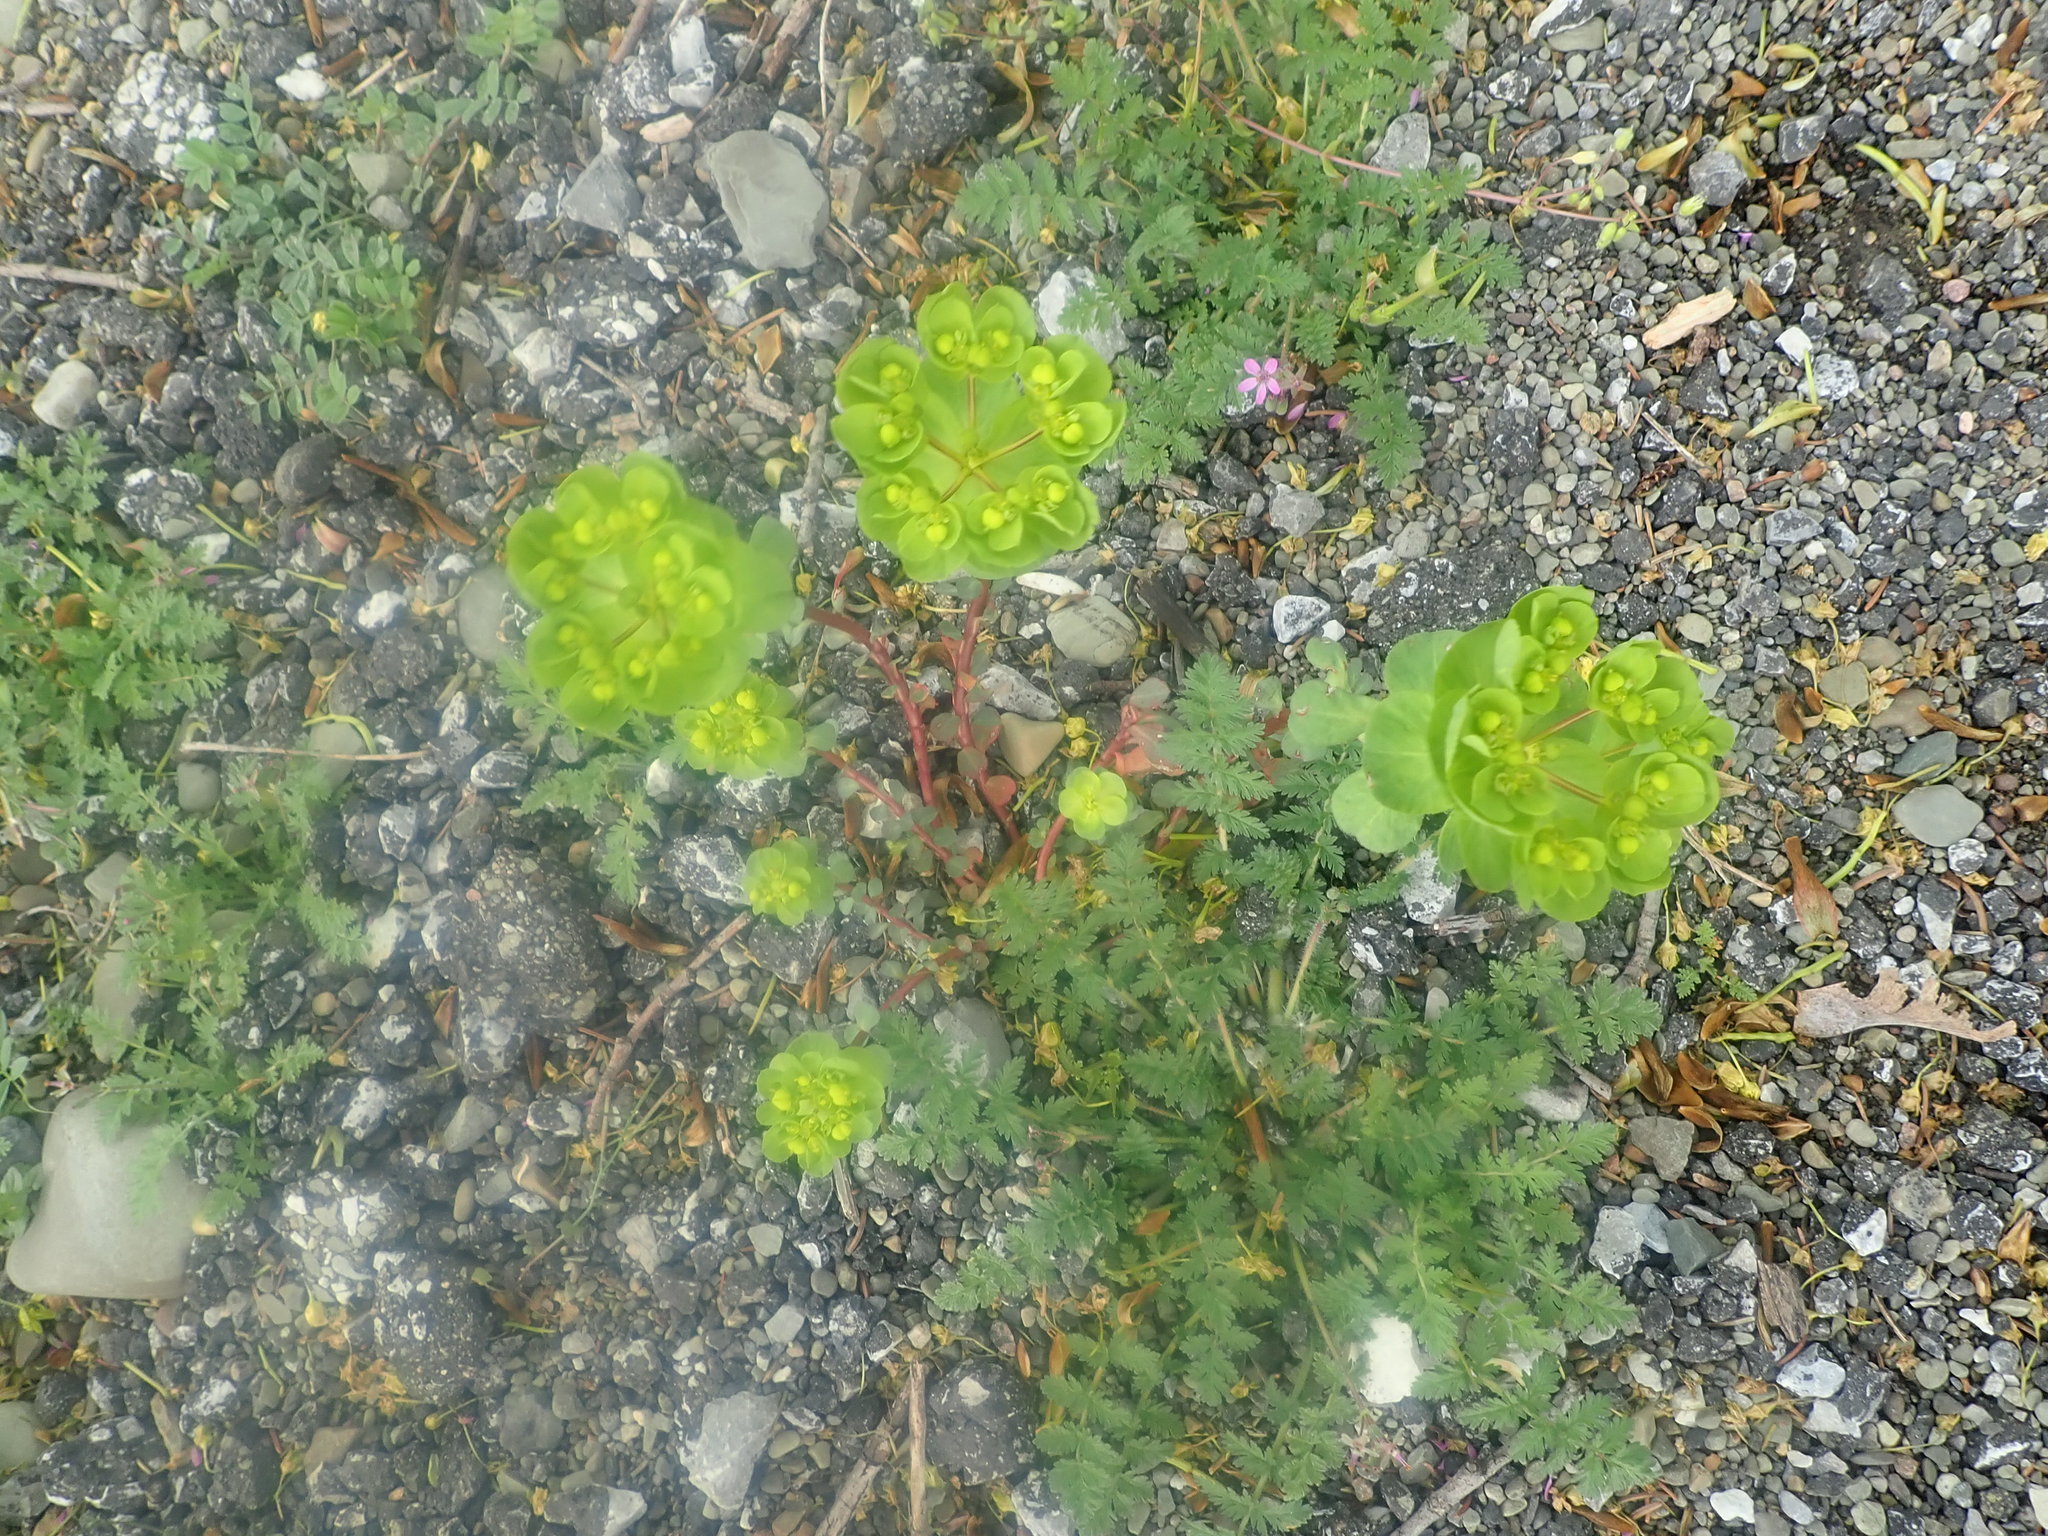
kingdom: Plantae
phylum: Tracheophyta
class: Magnoliopsida
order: Malpighiales
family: Euphorbiaceae
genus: Euphorbia
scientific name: Euphorbia helioscopia
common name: Sun spurge
